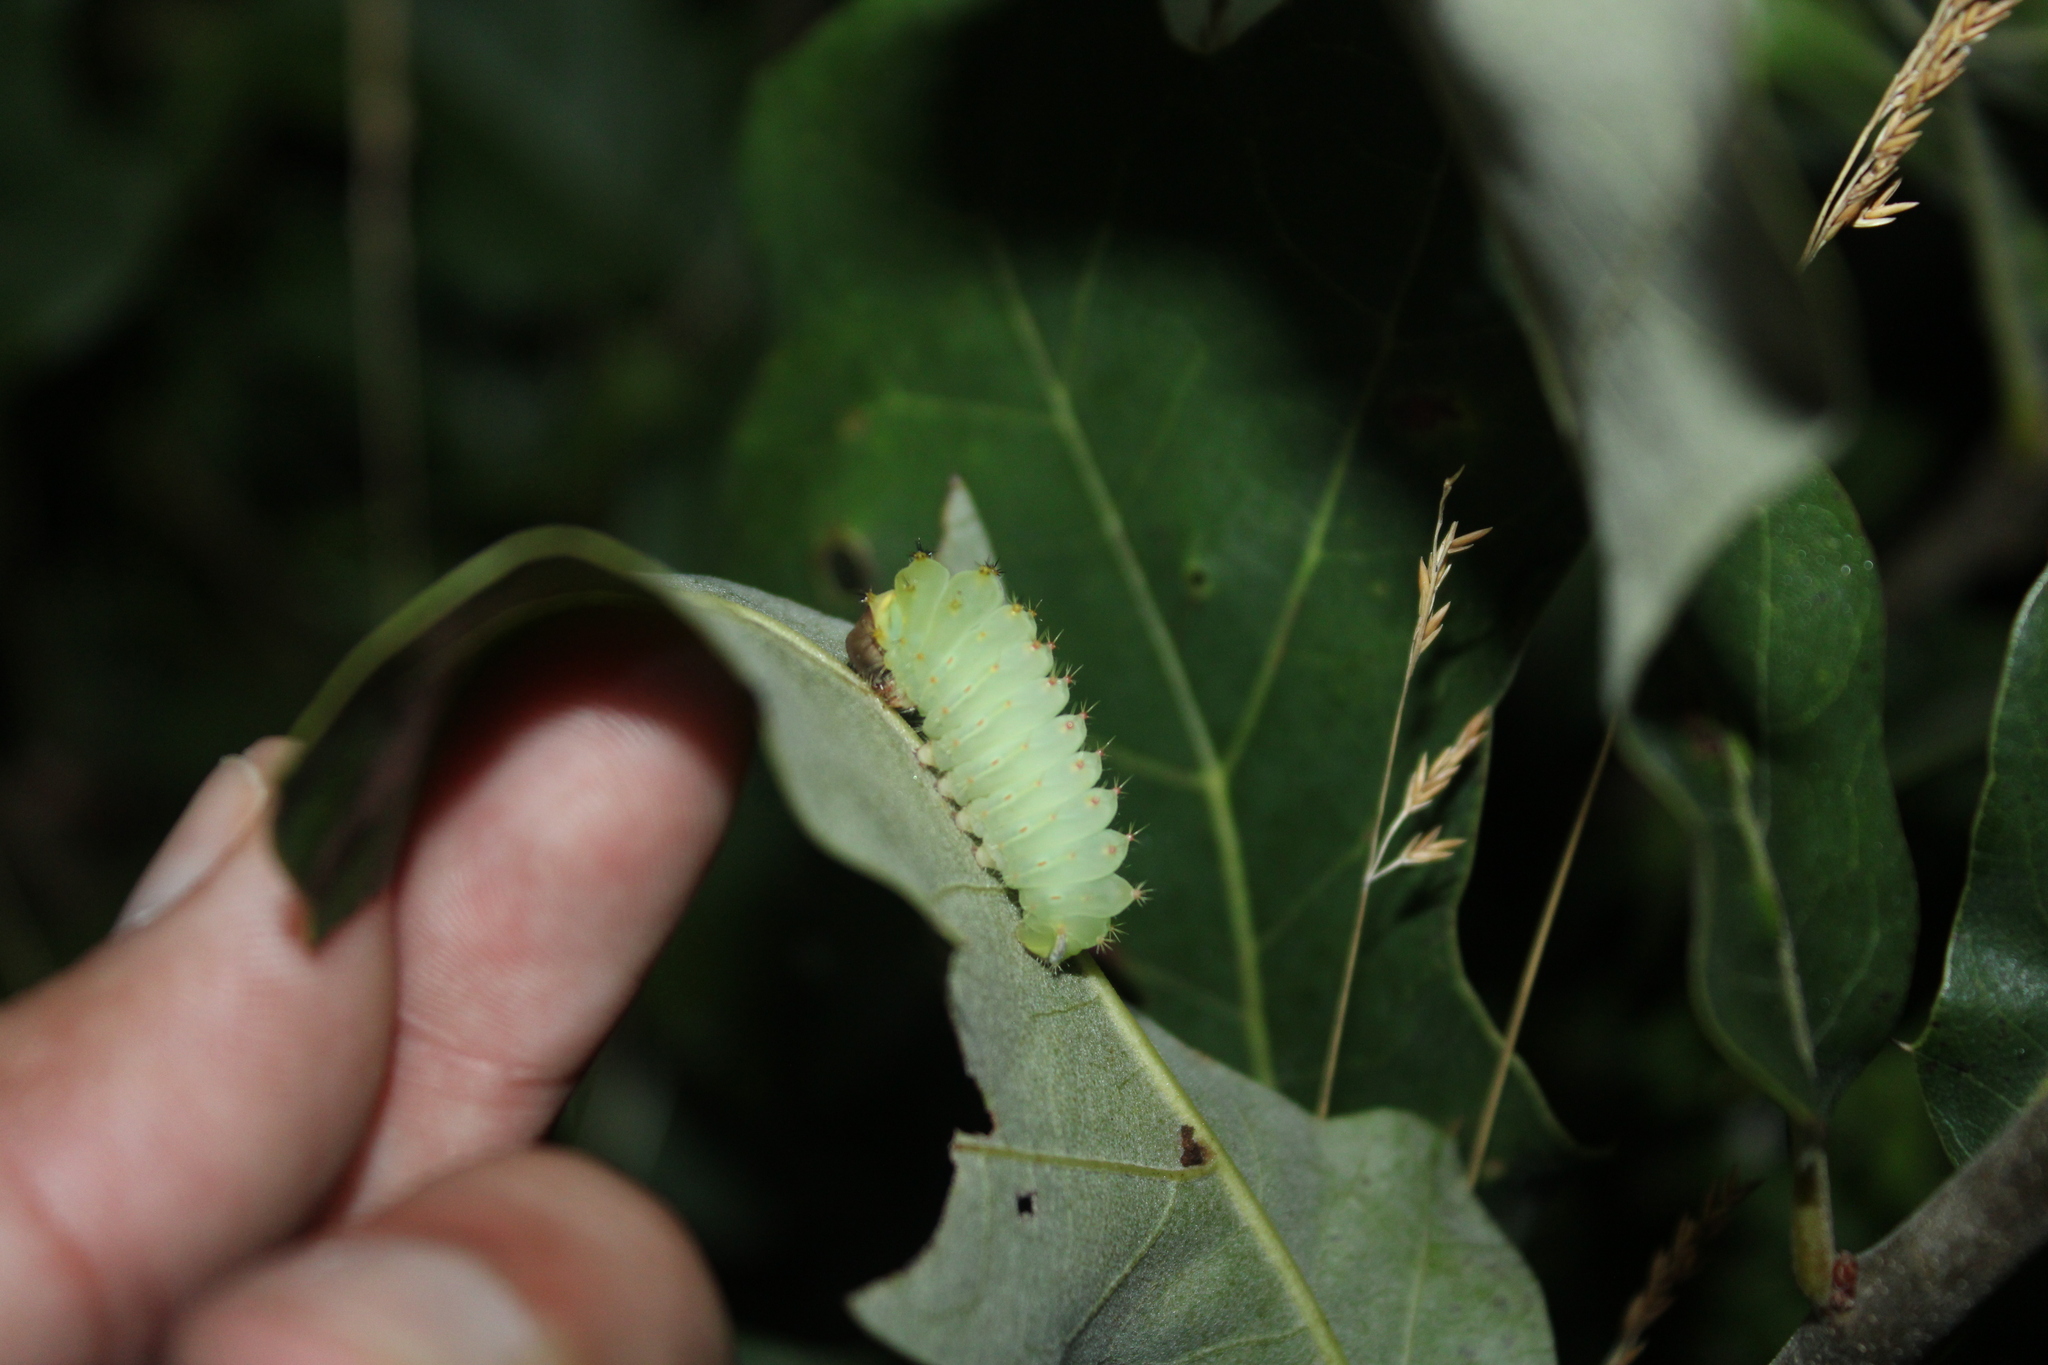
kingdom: Animalia
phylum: Arthropoda
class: Insecta
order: Lepidoptera
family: Saturniidae
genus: Antheraea
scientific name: Antheraea polyphemus
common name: Polyphemus moth
